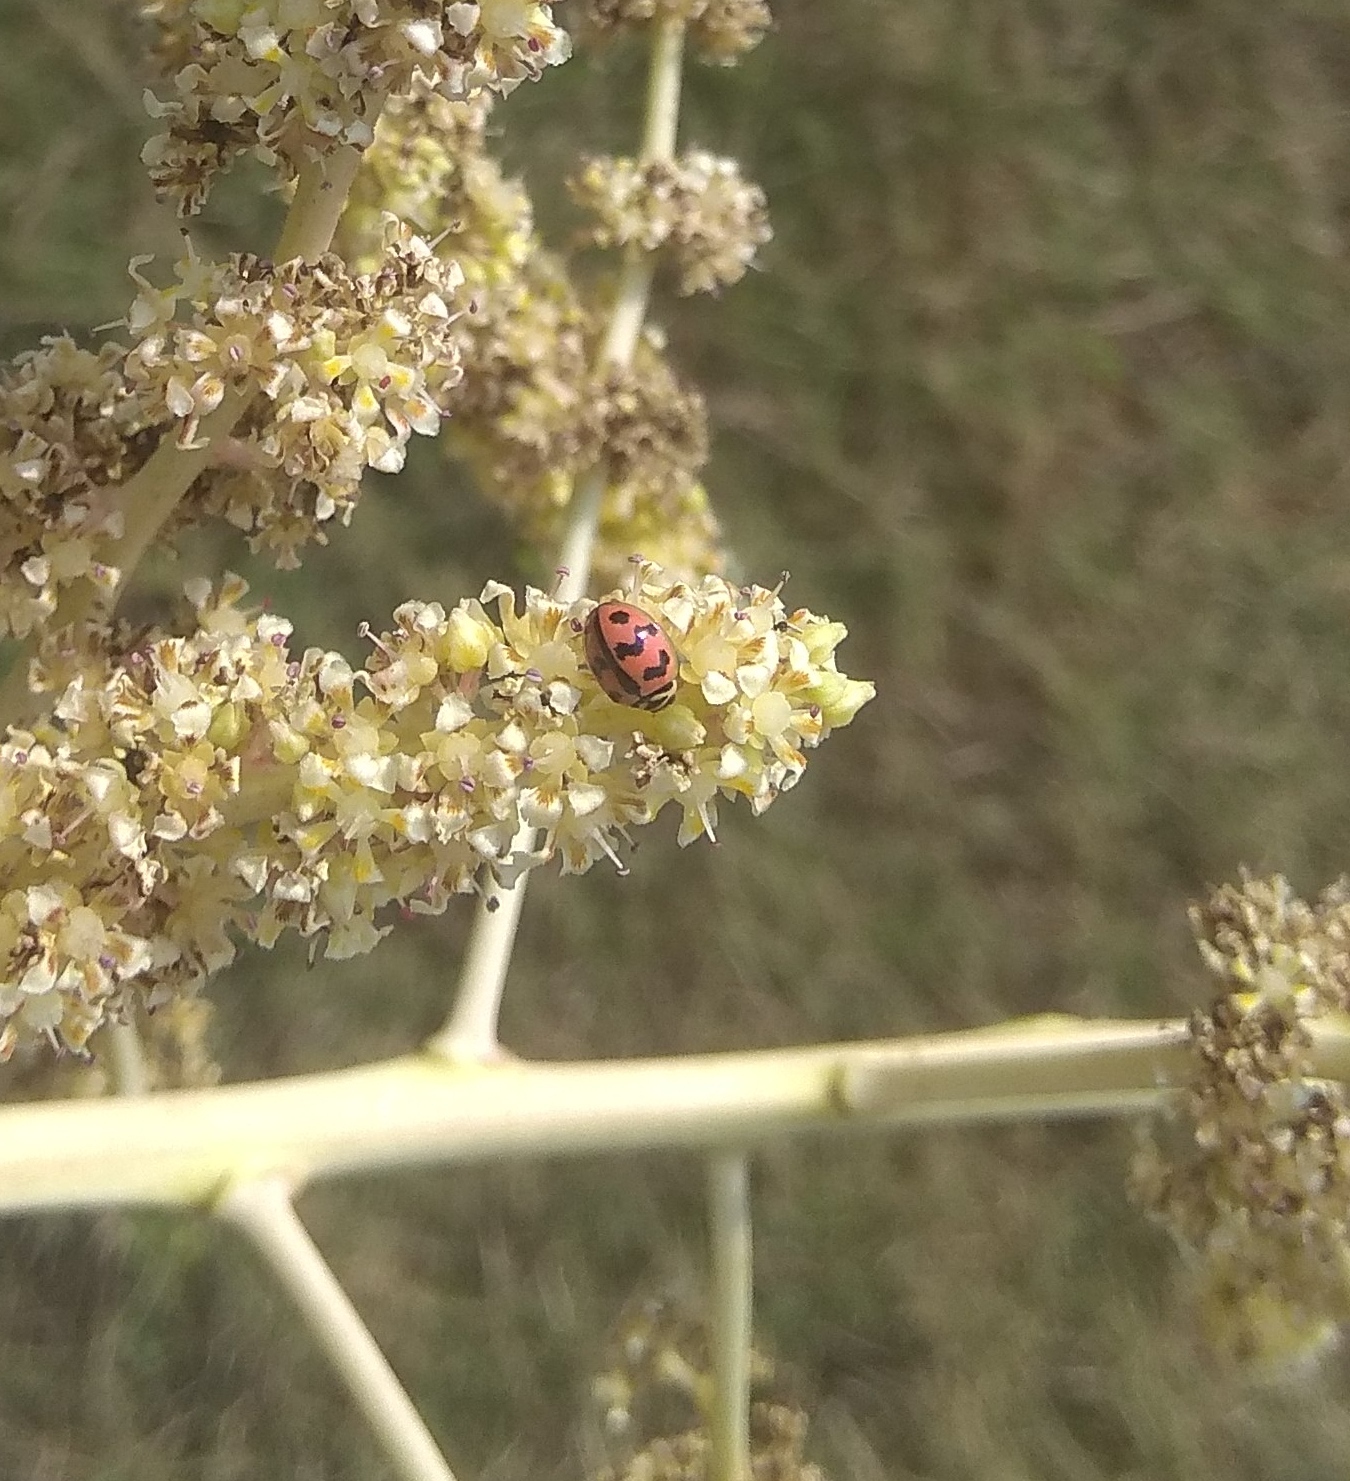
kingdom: Animalia
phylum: Arthropoda
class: Insecta
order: Coleoptera
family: Coccinellidae
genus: Cheilomenes
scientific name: Cheilomenes sexmaculata
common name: Ladybird beetle
